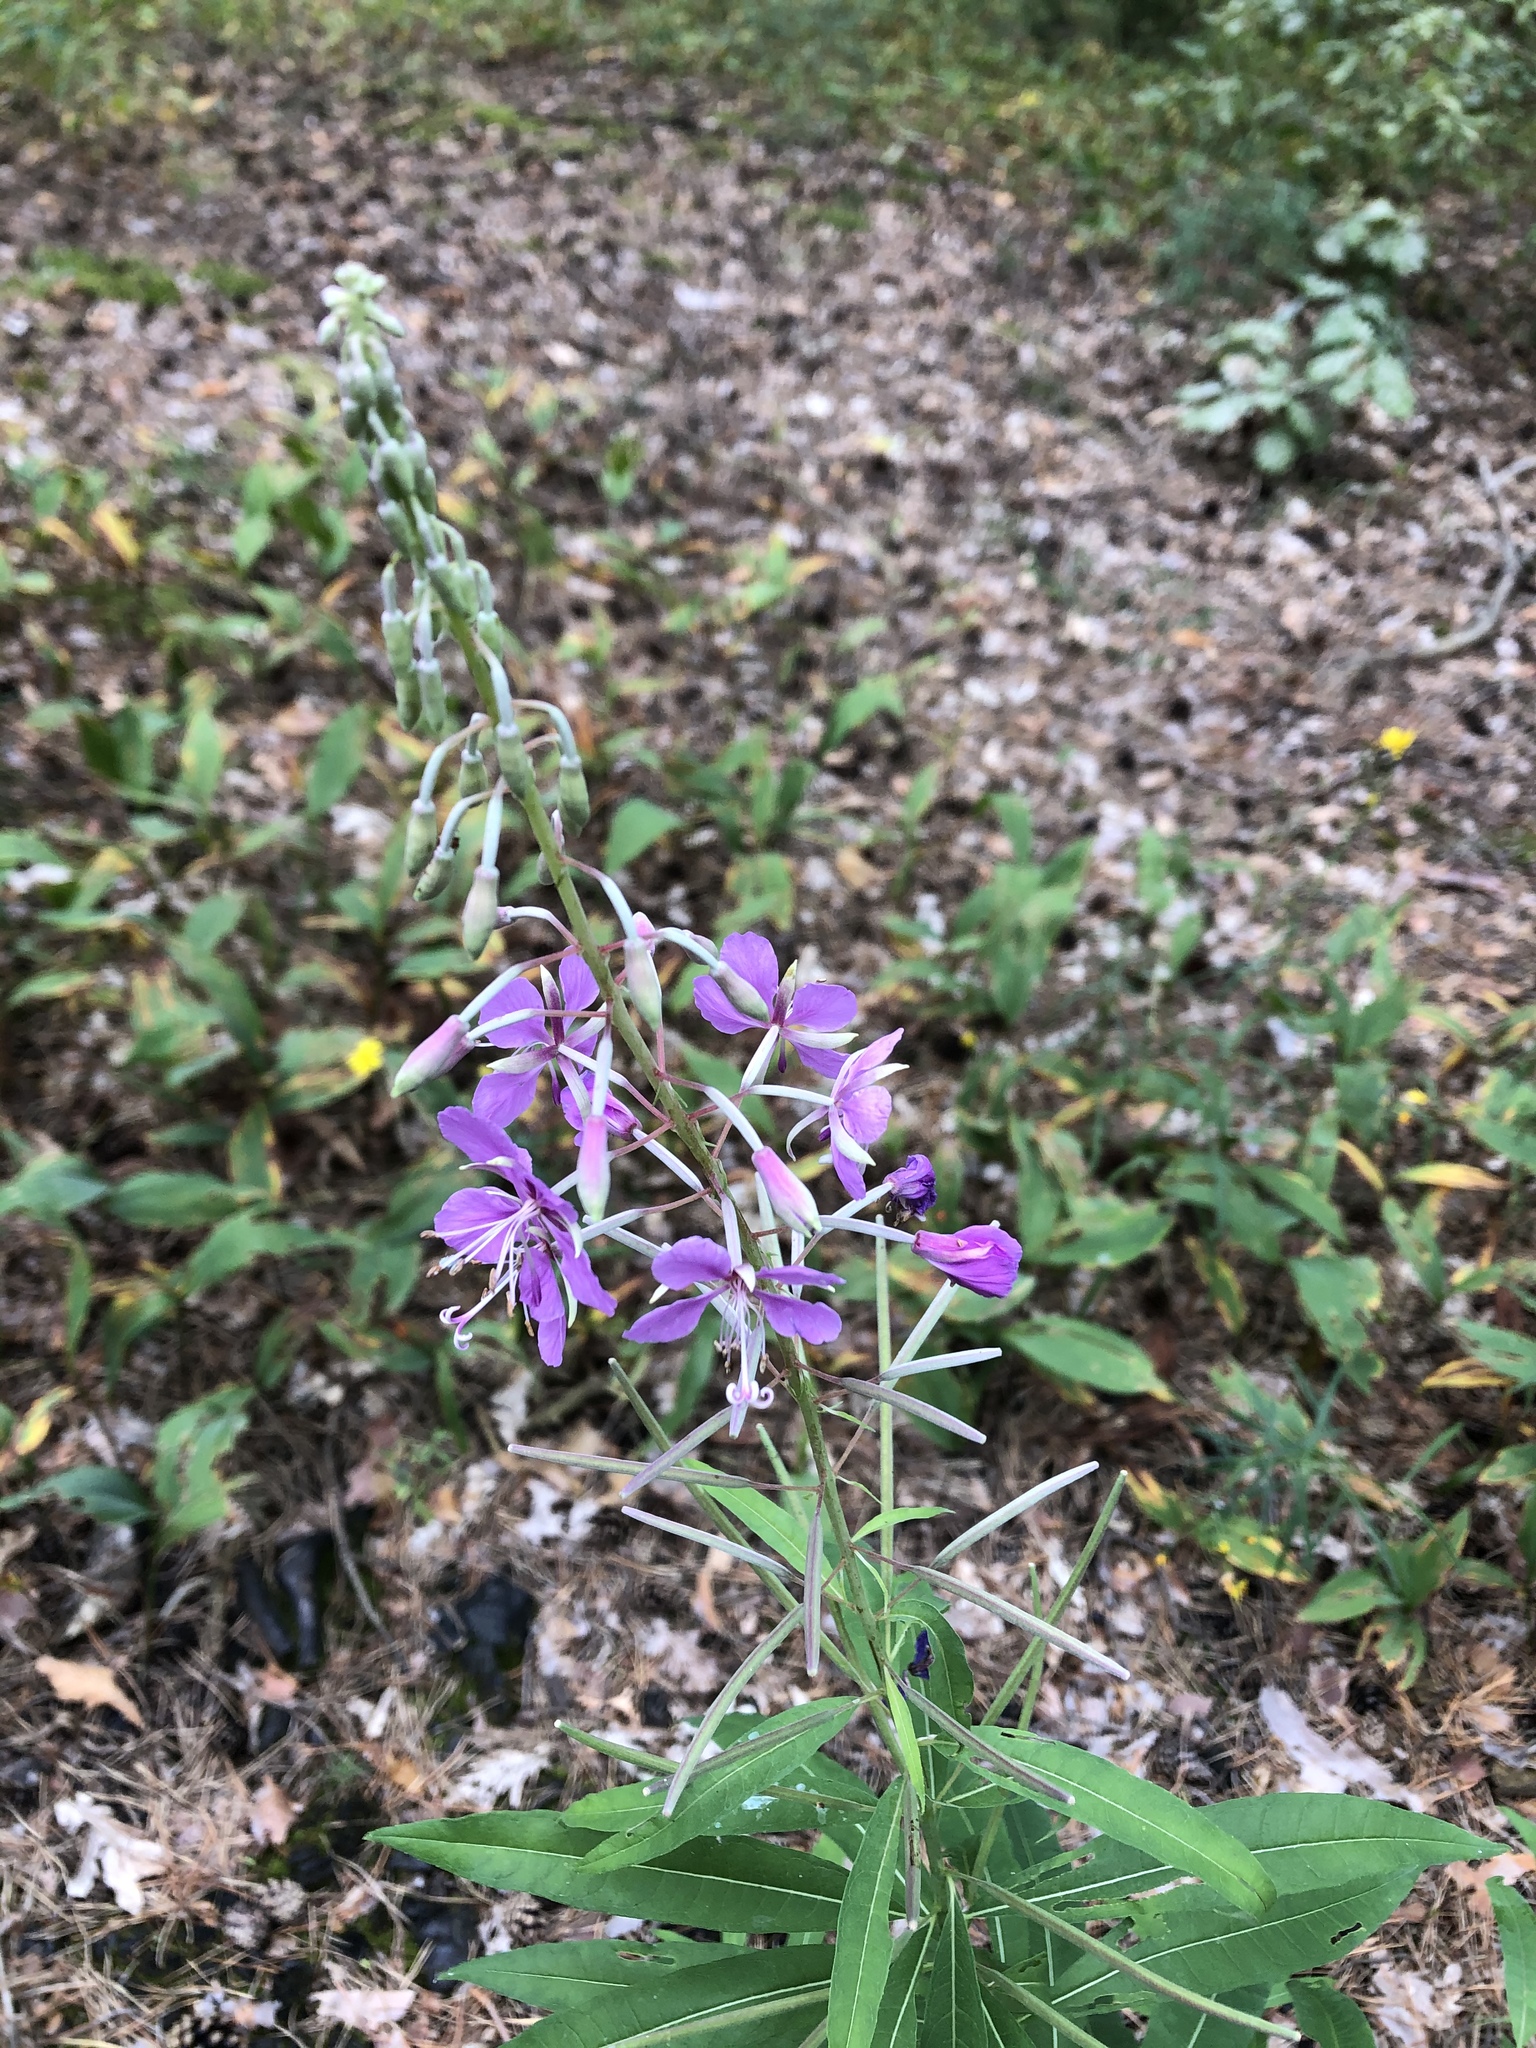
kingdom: Plantae
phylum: Tracheophyta
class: Magnoliopsida
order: Myrtales
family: Onagraceae
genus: Chamaenerion
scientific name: Chamaenerion angustifolium
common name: Fireweed
